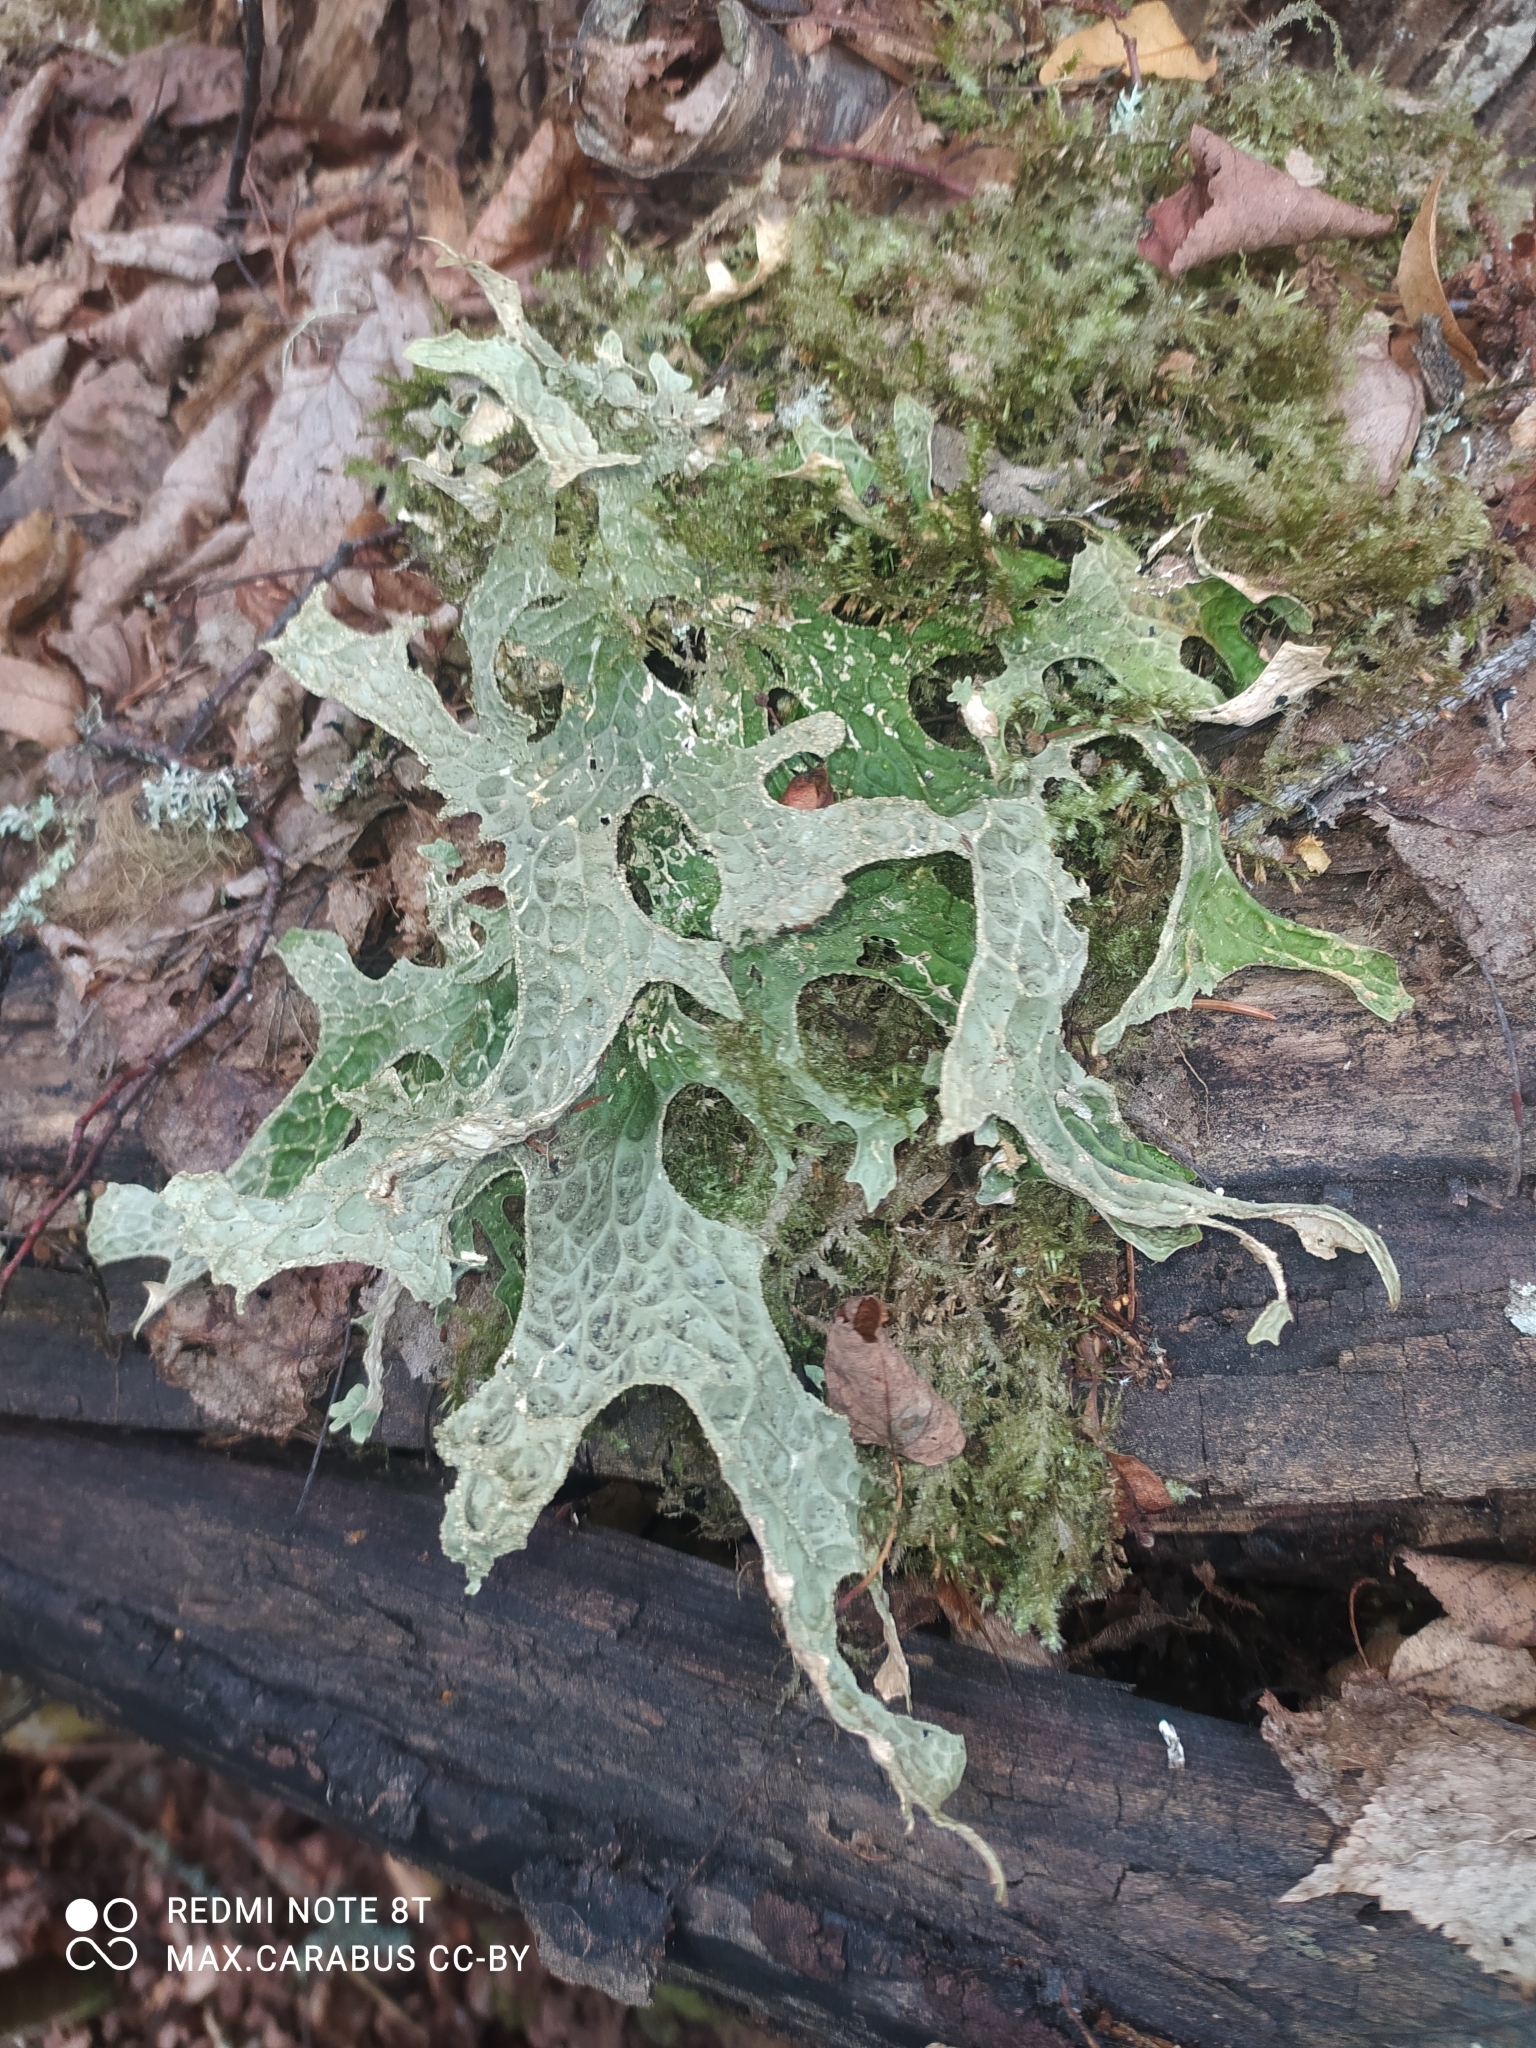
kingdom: Fungi
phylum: Ascomycota
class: Lecanoromycetes
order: Peltigerales
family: Lobariaceae
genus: Lobaria
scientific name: Lobaria pulmonaria
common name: Lungwort
